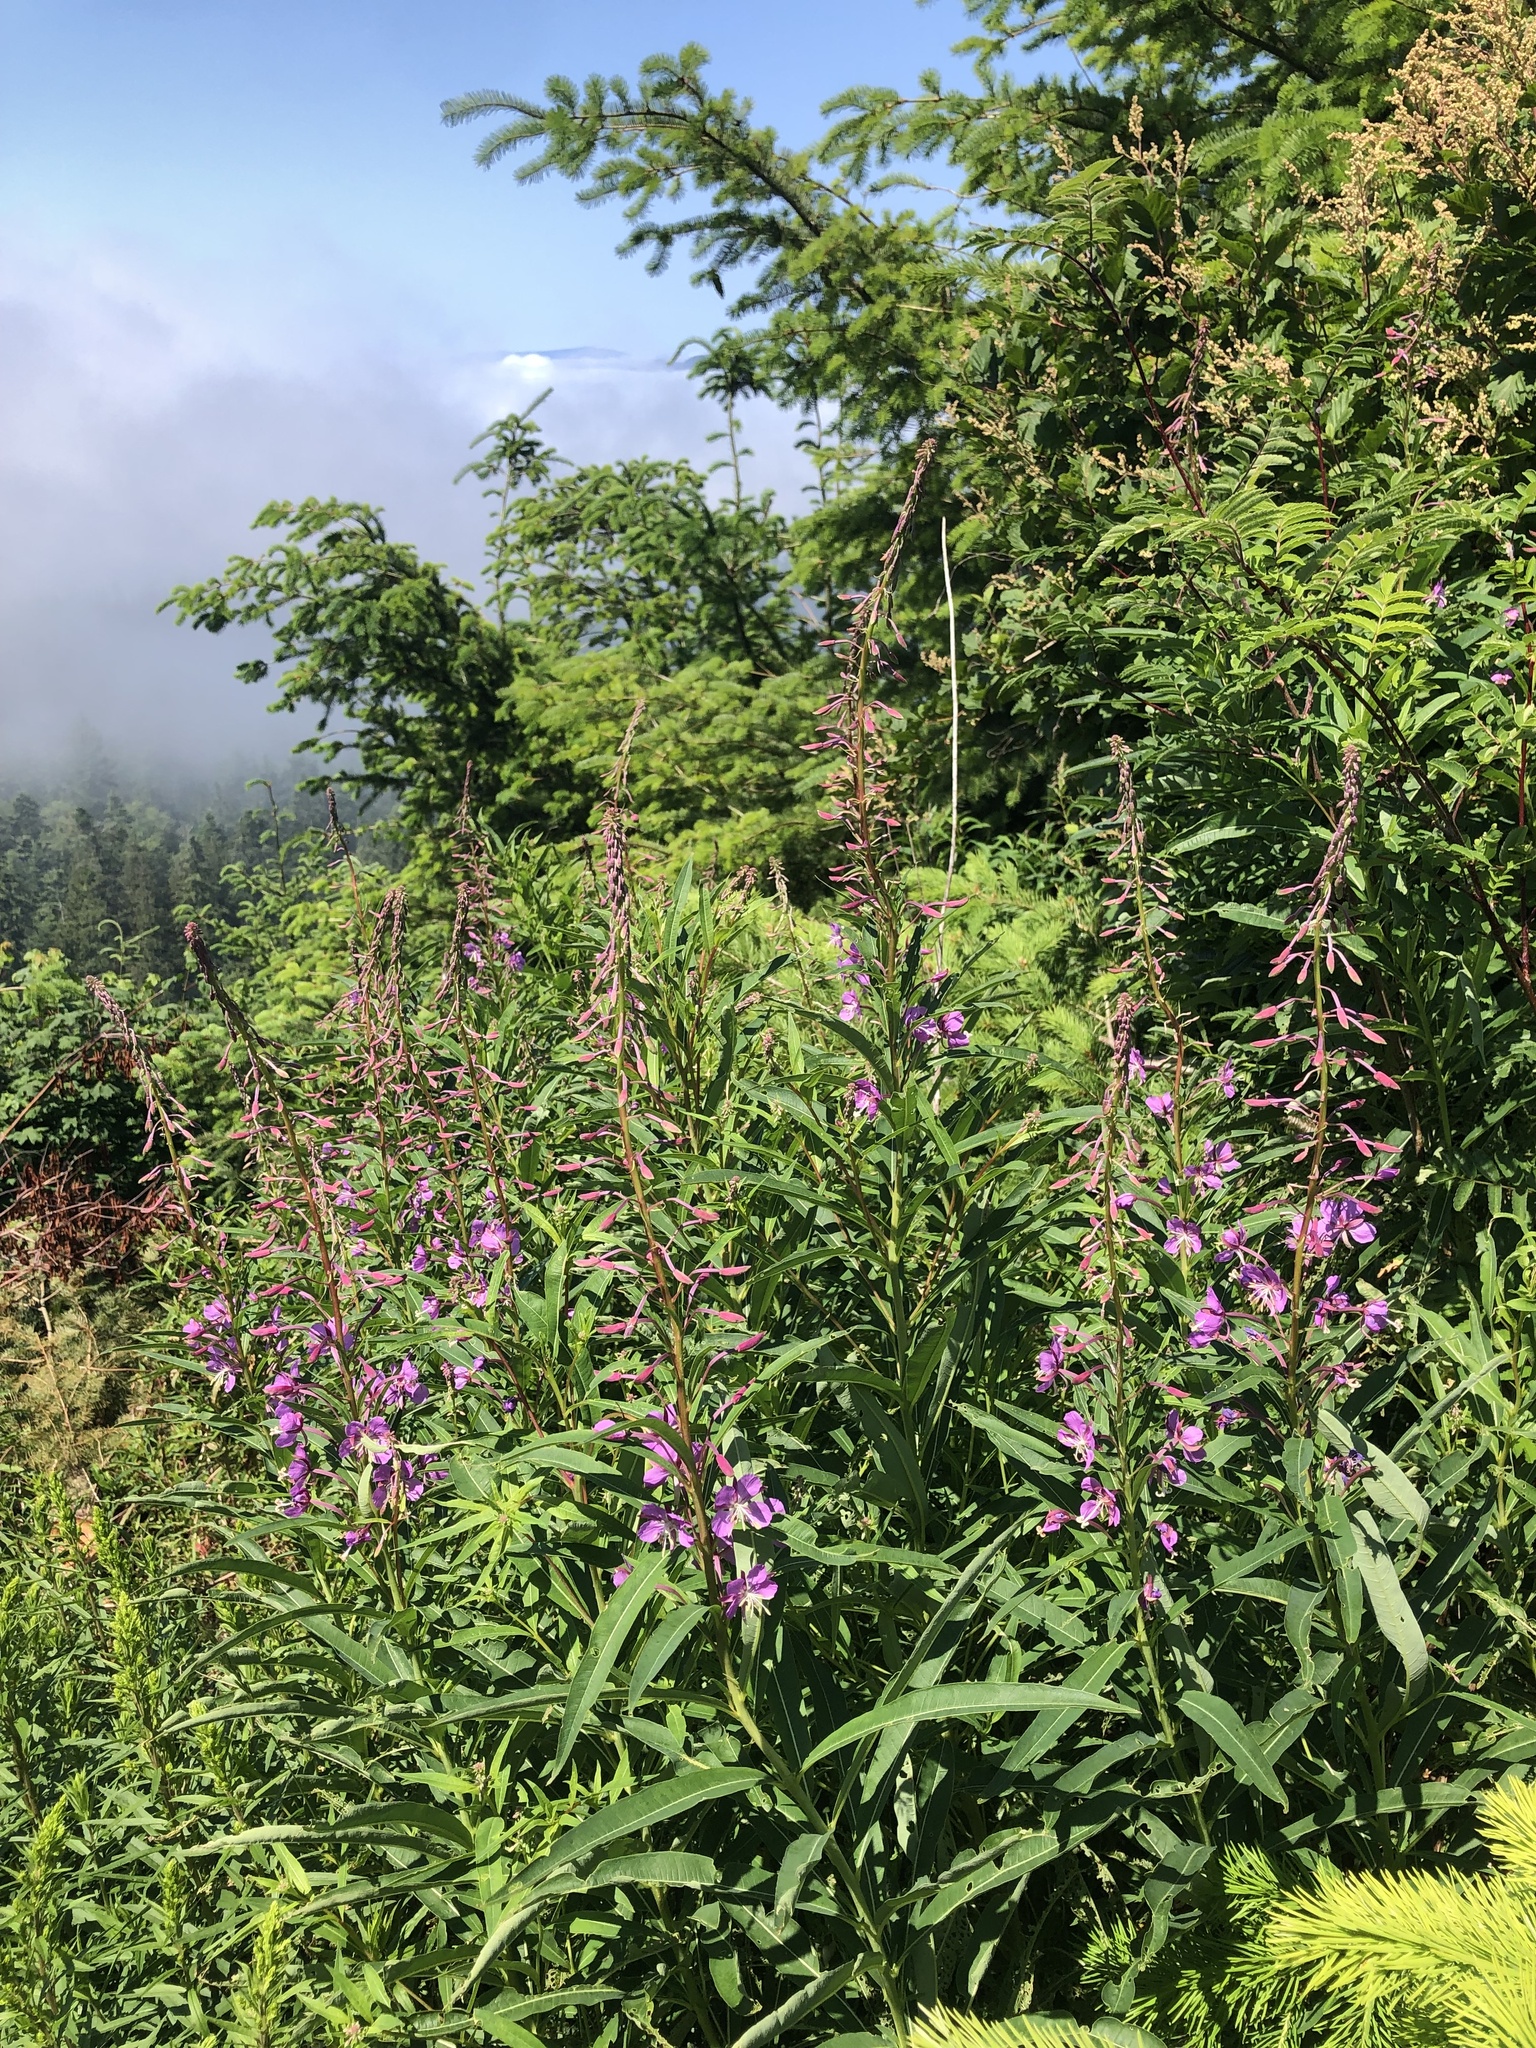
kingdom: Plantae
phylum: Tracheophyta
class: Magnoliopsida
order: Myrtales
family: Onagraceae
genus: Chamaenerion
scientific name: Chamaenerion angustifolium
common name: Fireweed
